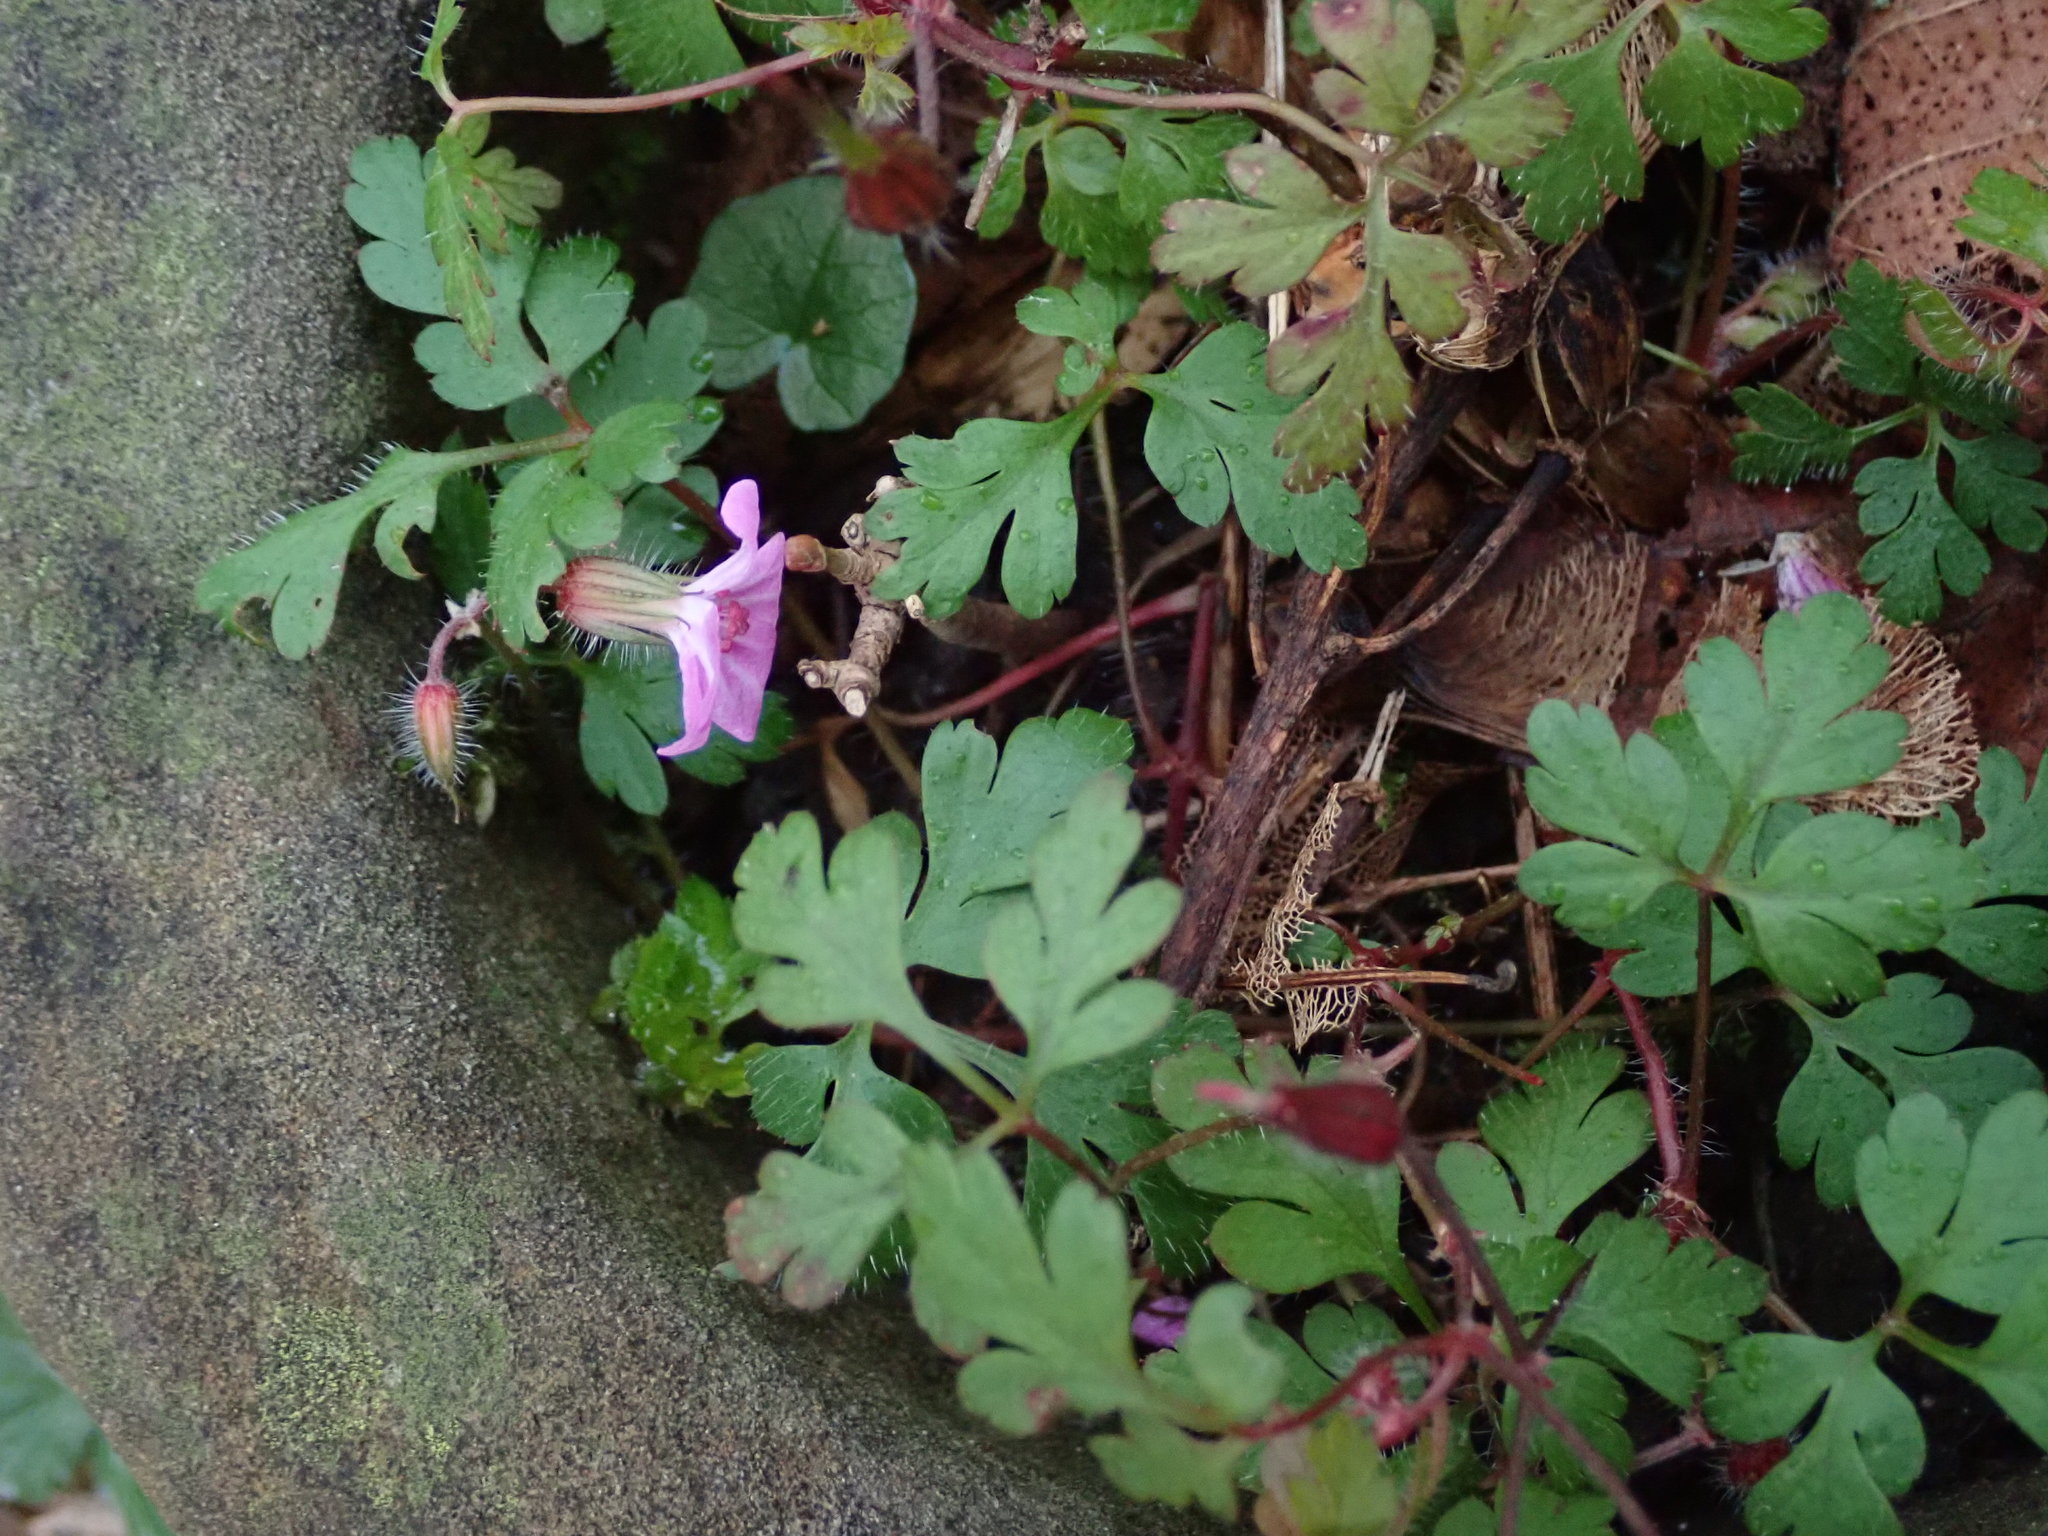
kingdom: Plantae
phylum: Tracheophyta
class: Magnoliopsida
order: Geraniales
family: Geraniaceae
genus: Geranium
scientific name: Geranium robertianum
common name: Herb-robert
